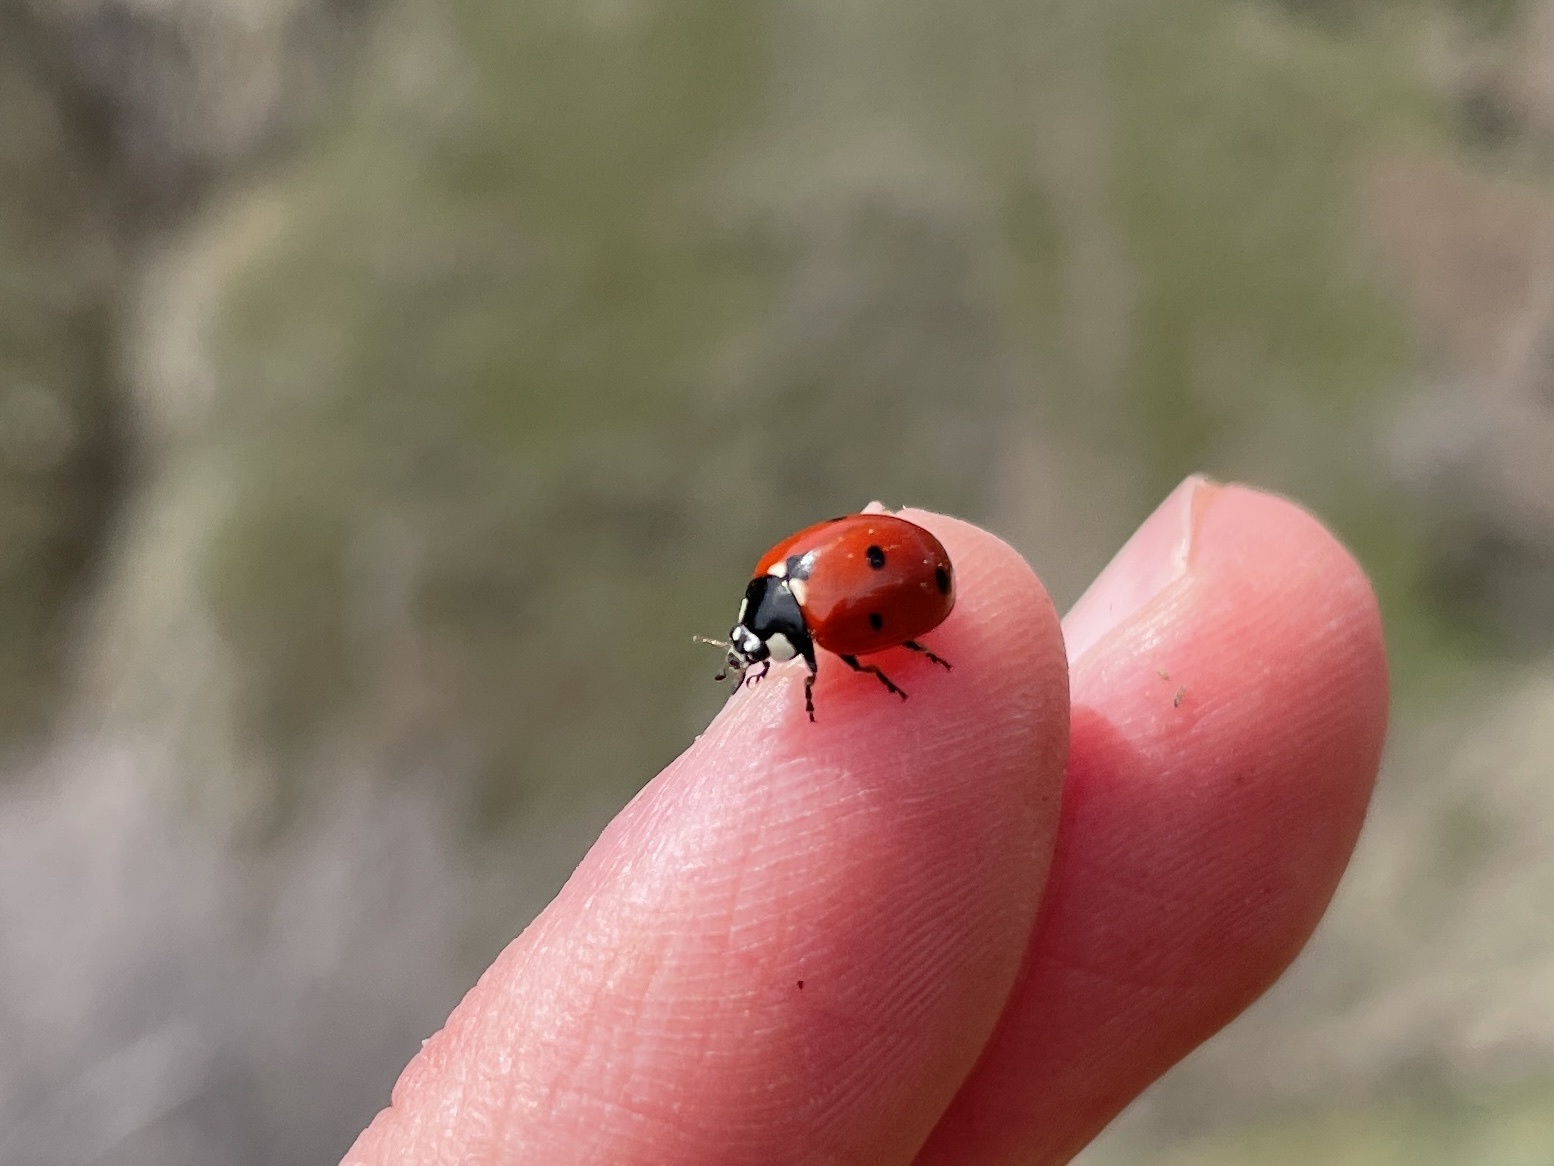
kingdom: Animalia
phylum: Arthropoda
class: Insecta
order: Coleoptera
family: Coccinellidae
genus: Coccinella
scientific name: Coccinella septempunctata
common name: Sevenspotted lady beetle
